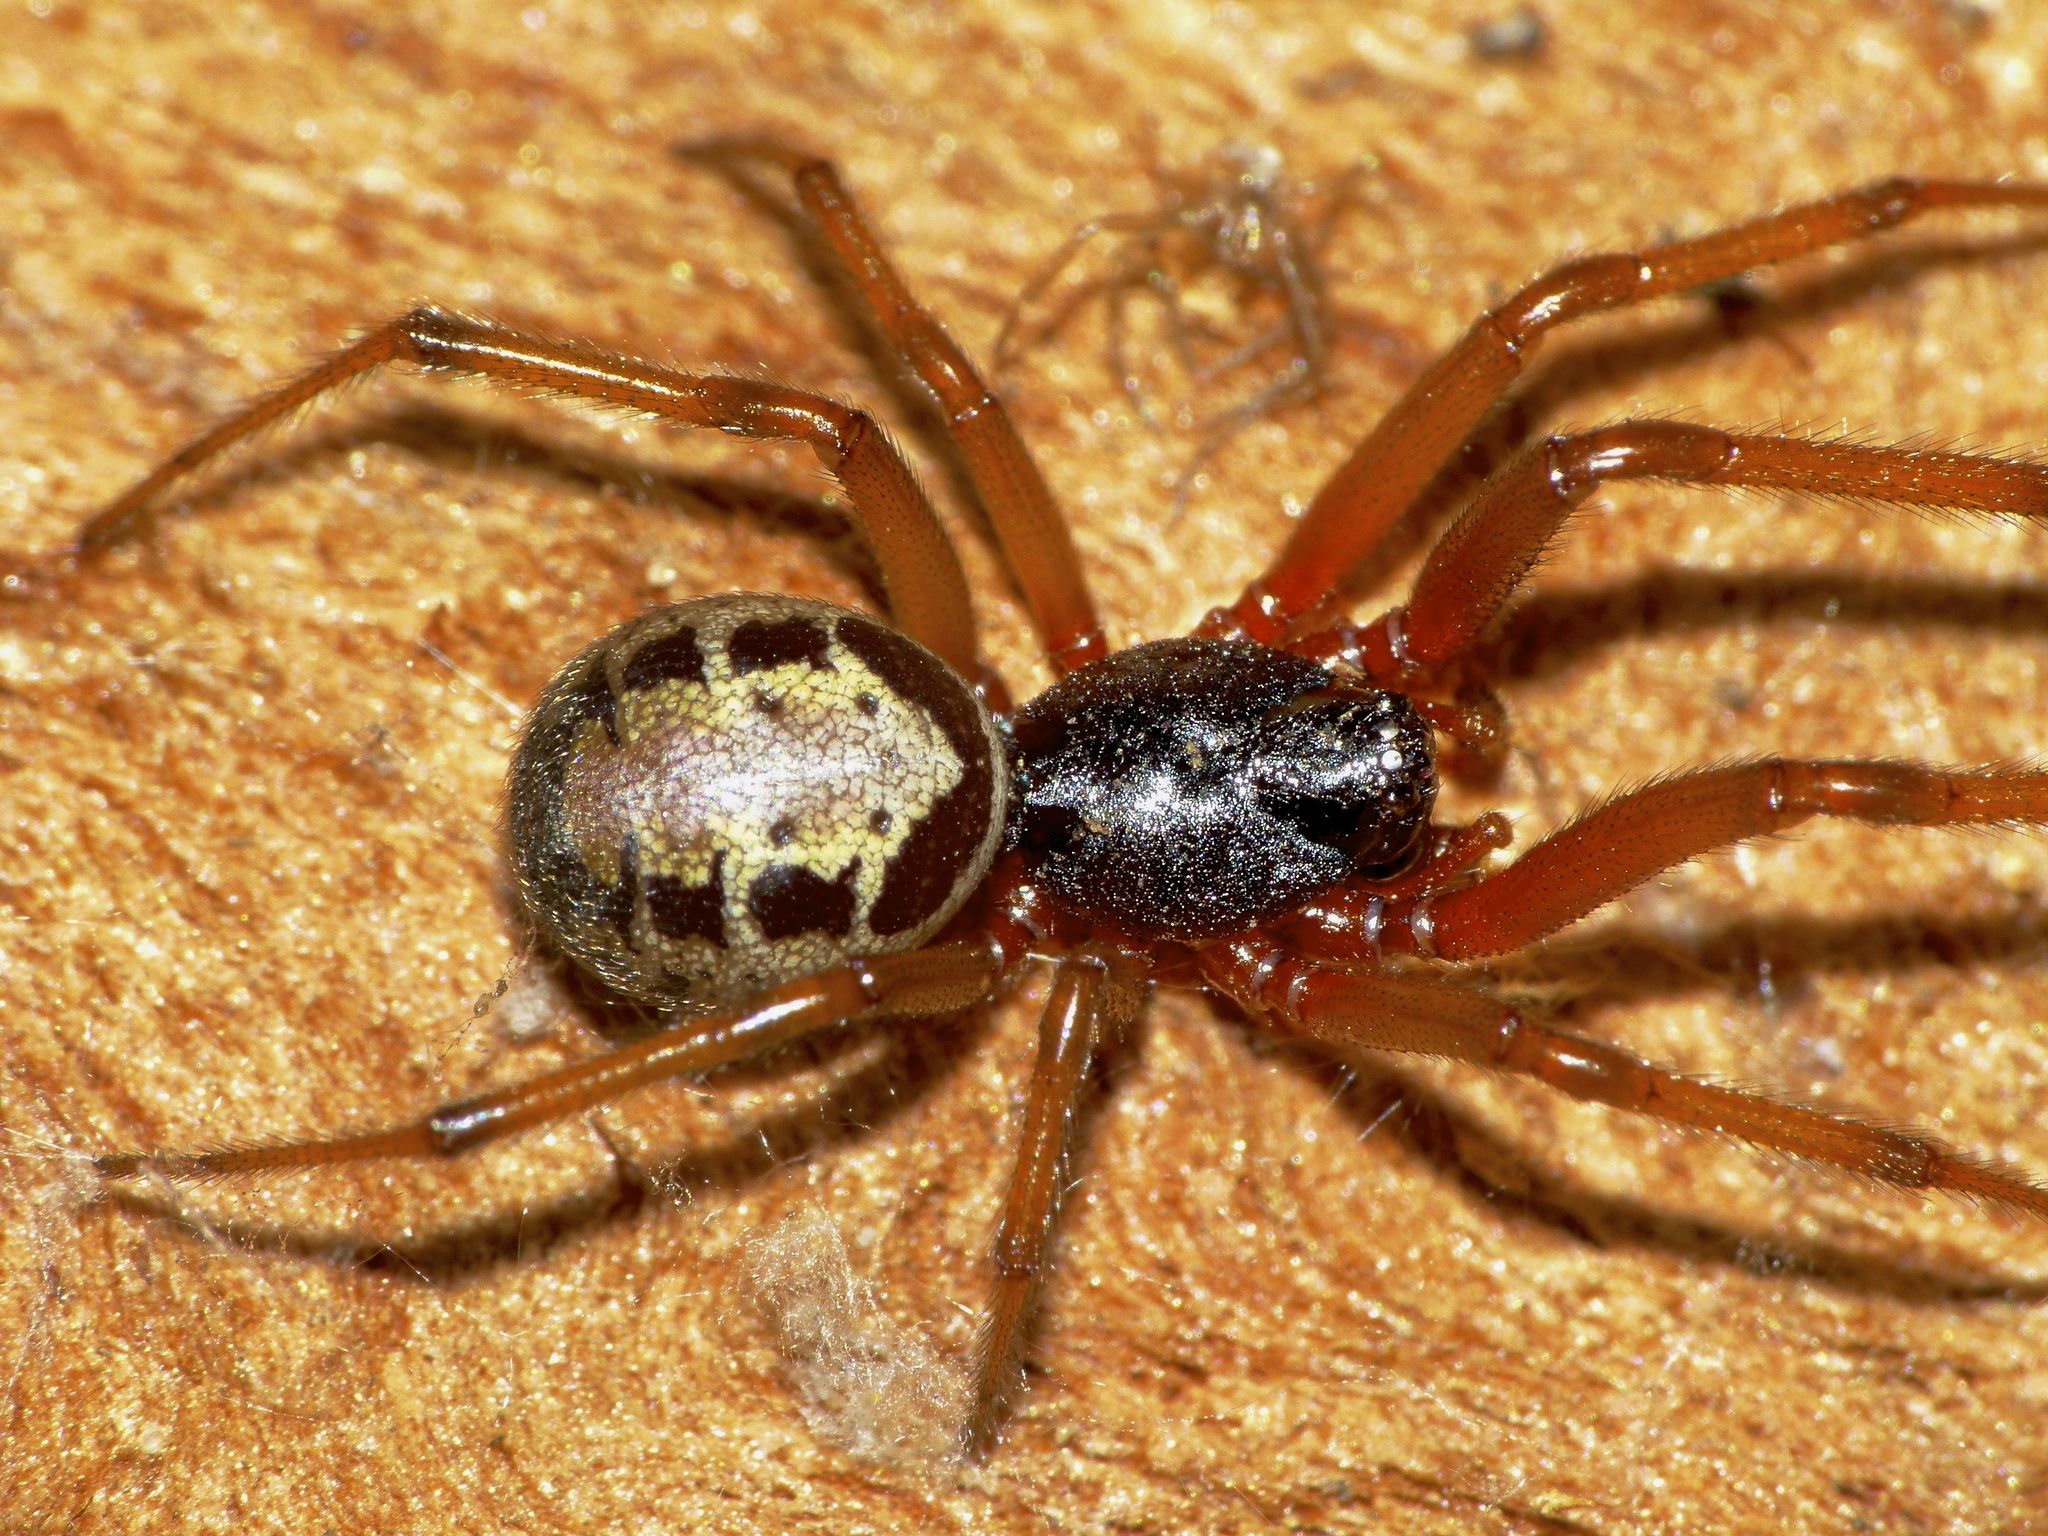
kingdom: Animalia
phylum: Arthropoda
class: Arachnida
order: Araneae
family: Theridiidae
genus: Steatoda
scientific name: Steatoda nobilis
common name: Cobweb weaver
